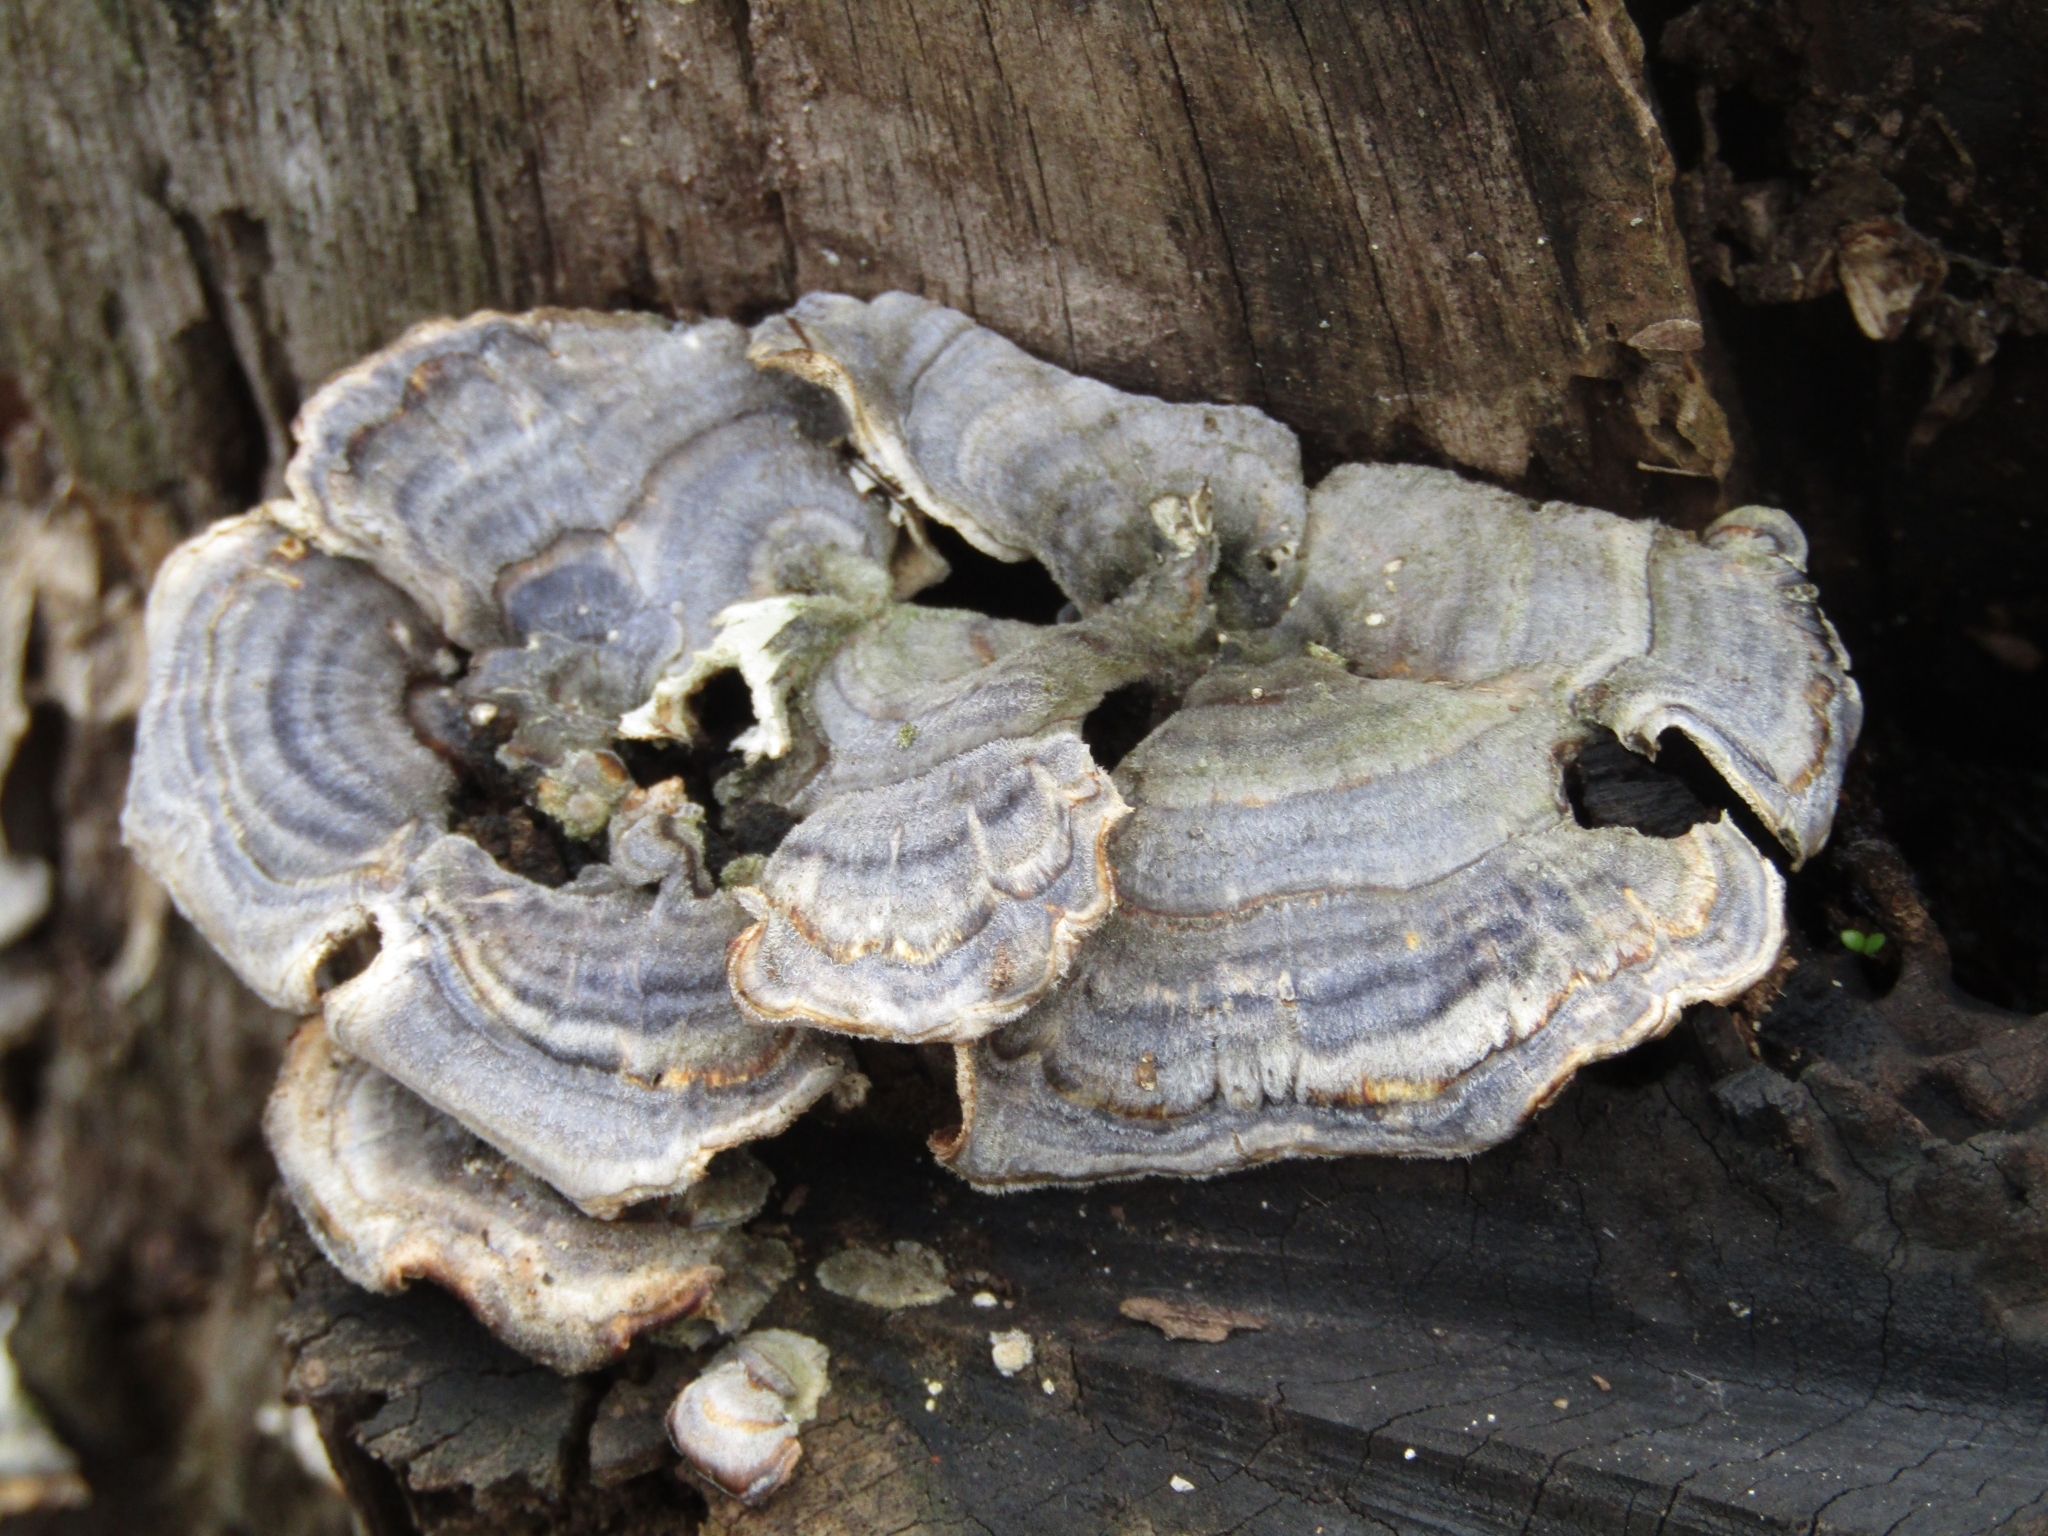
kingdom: Fungi
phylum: Basidiomycota
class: Agaricomycetes
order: Polyporales
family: Polyporaceae
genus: Trametes
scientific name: Trametes versicolor
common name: Turkeytail
